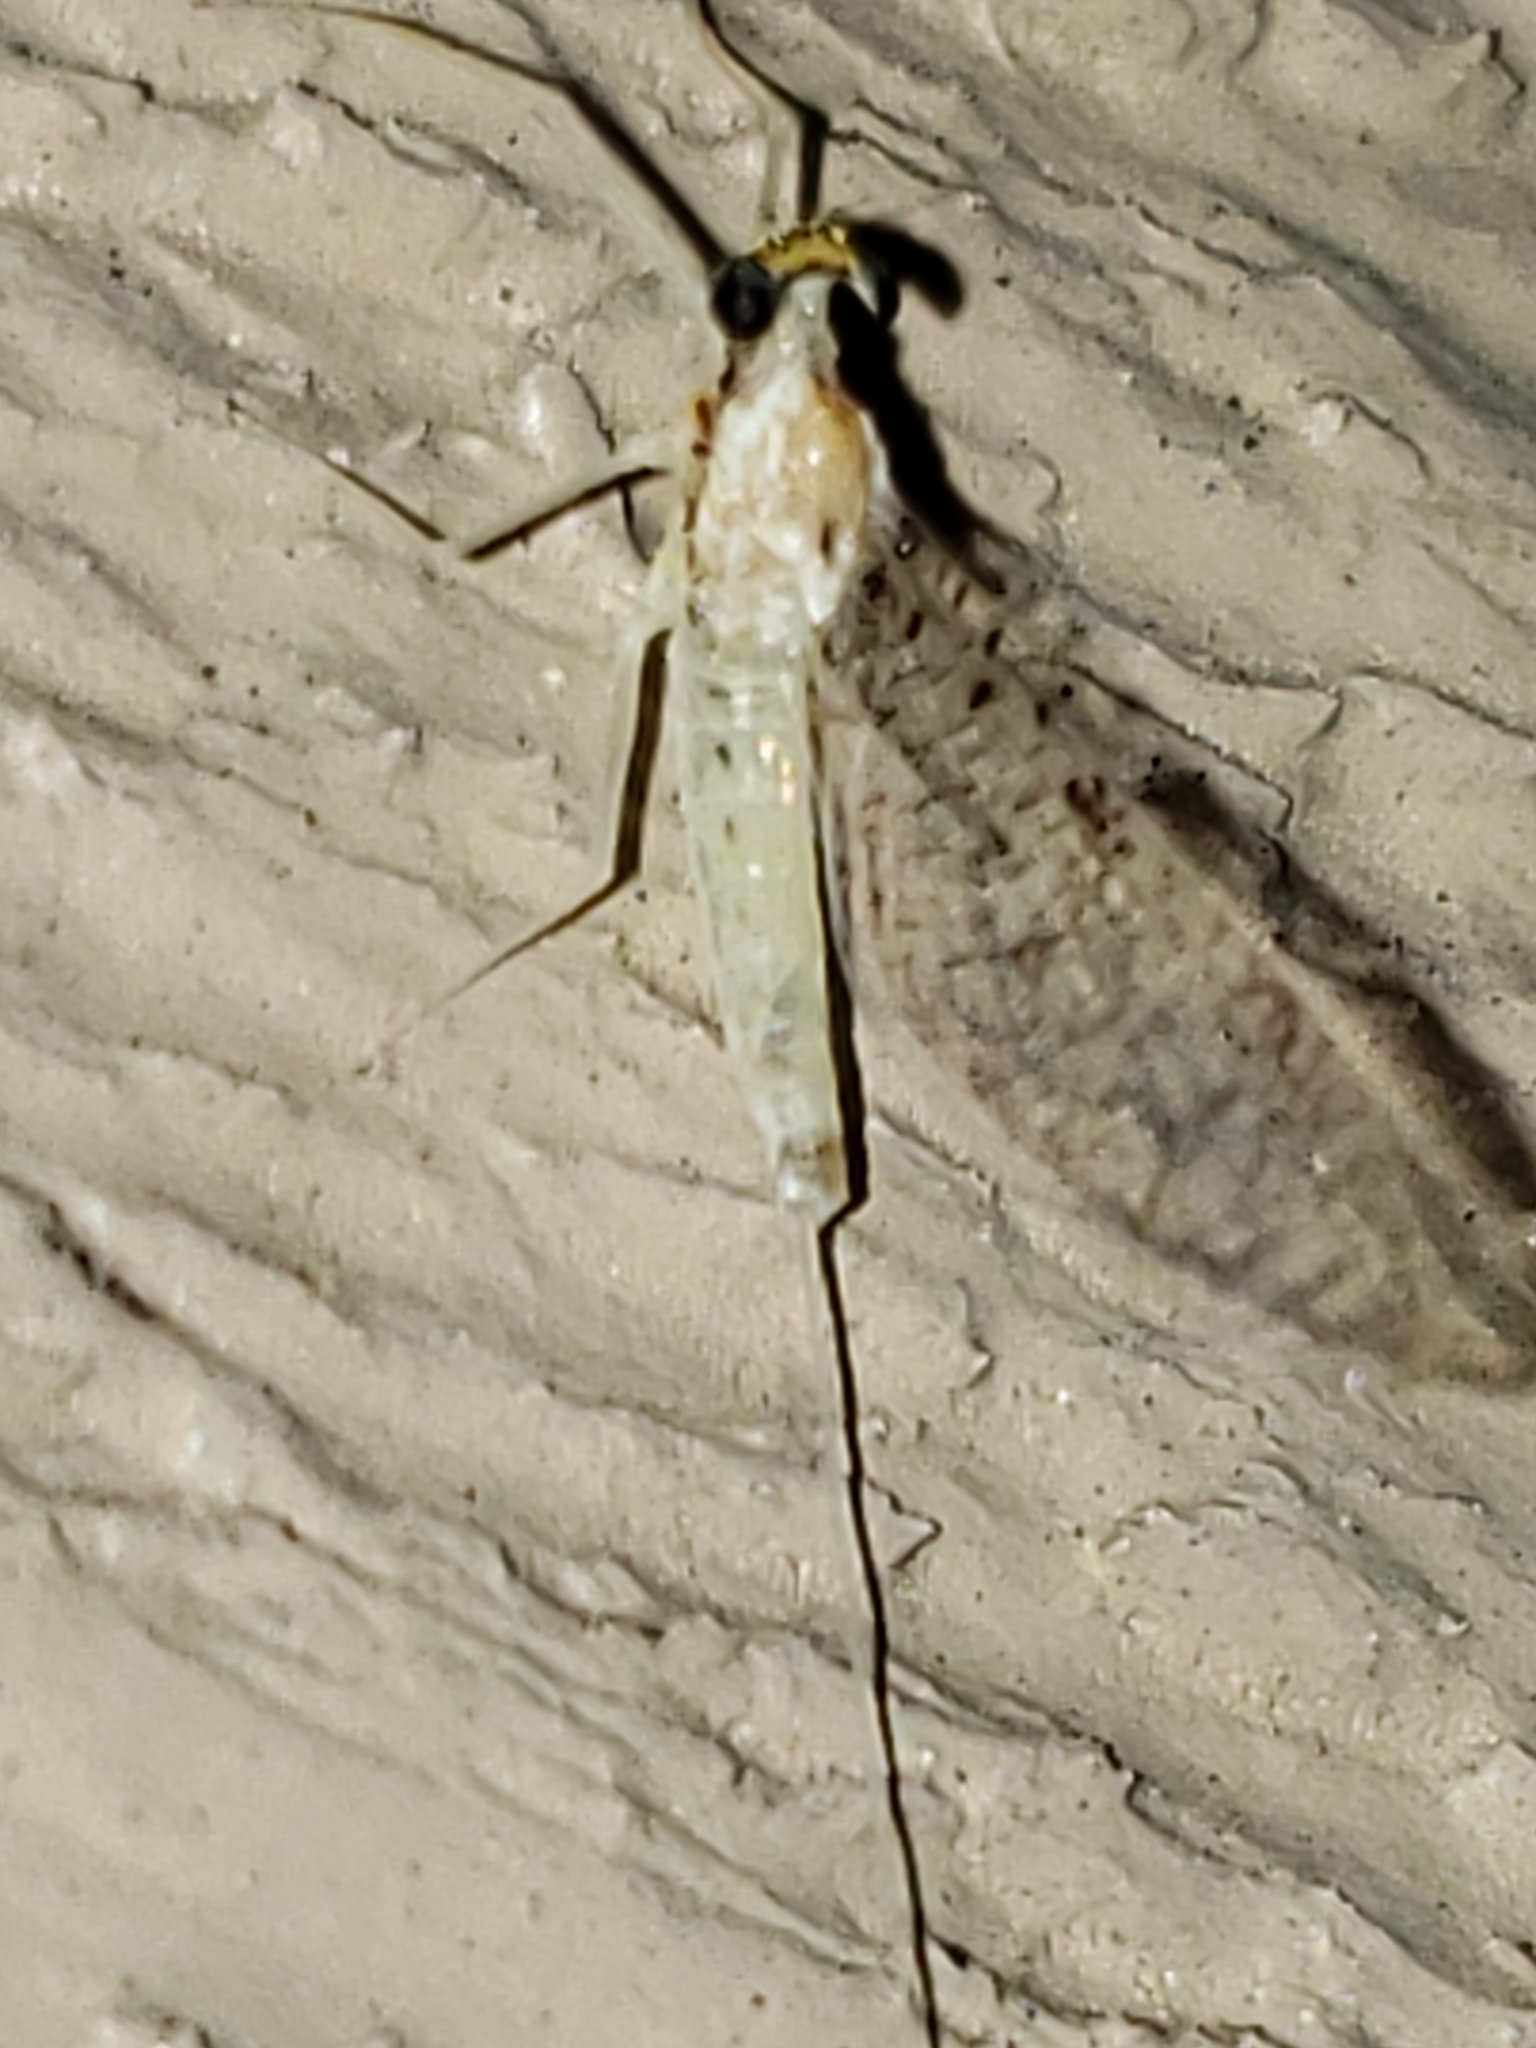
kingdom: Animalia
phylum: Arthropoda
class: Insecta
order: Ephemeroptera
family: Heptageniidae
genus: Leucrocuta
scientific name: Leucrocuta hebe
